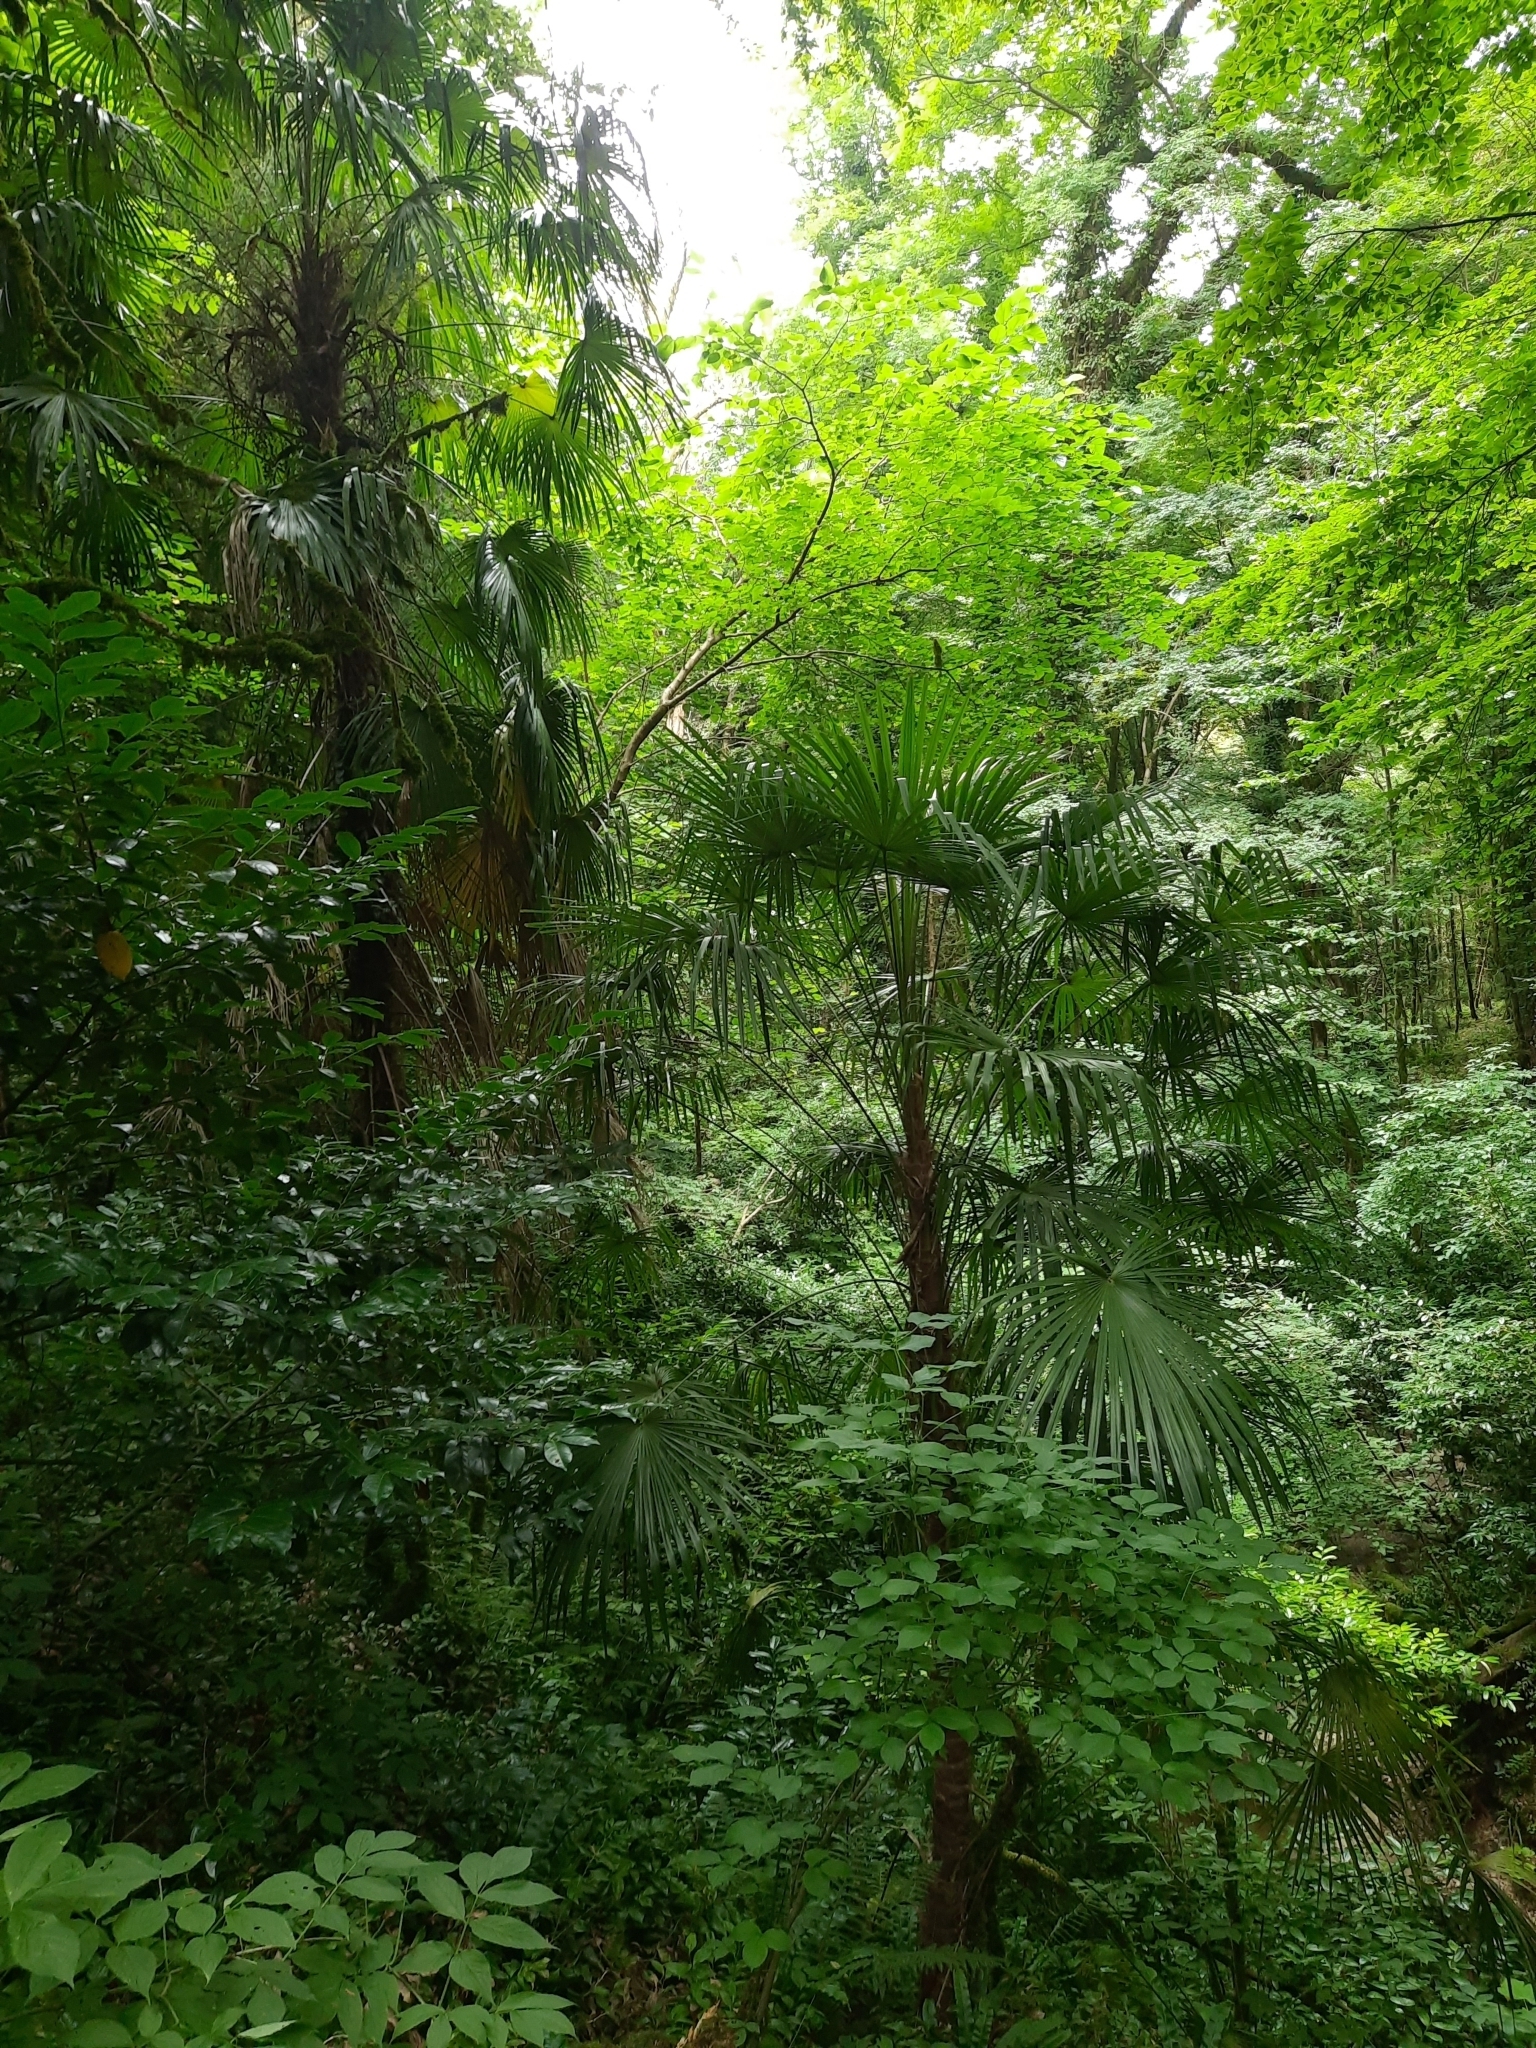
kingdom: Plantae
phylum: Tracheophyta
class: Liliopsida
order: Arecales
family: Arecaceae
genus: Trachycarpus
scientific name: Trachycarpus fortunei
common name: Chusan palm
